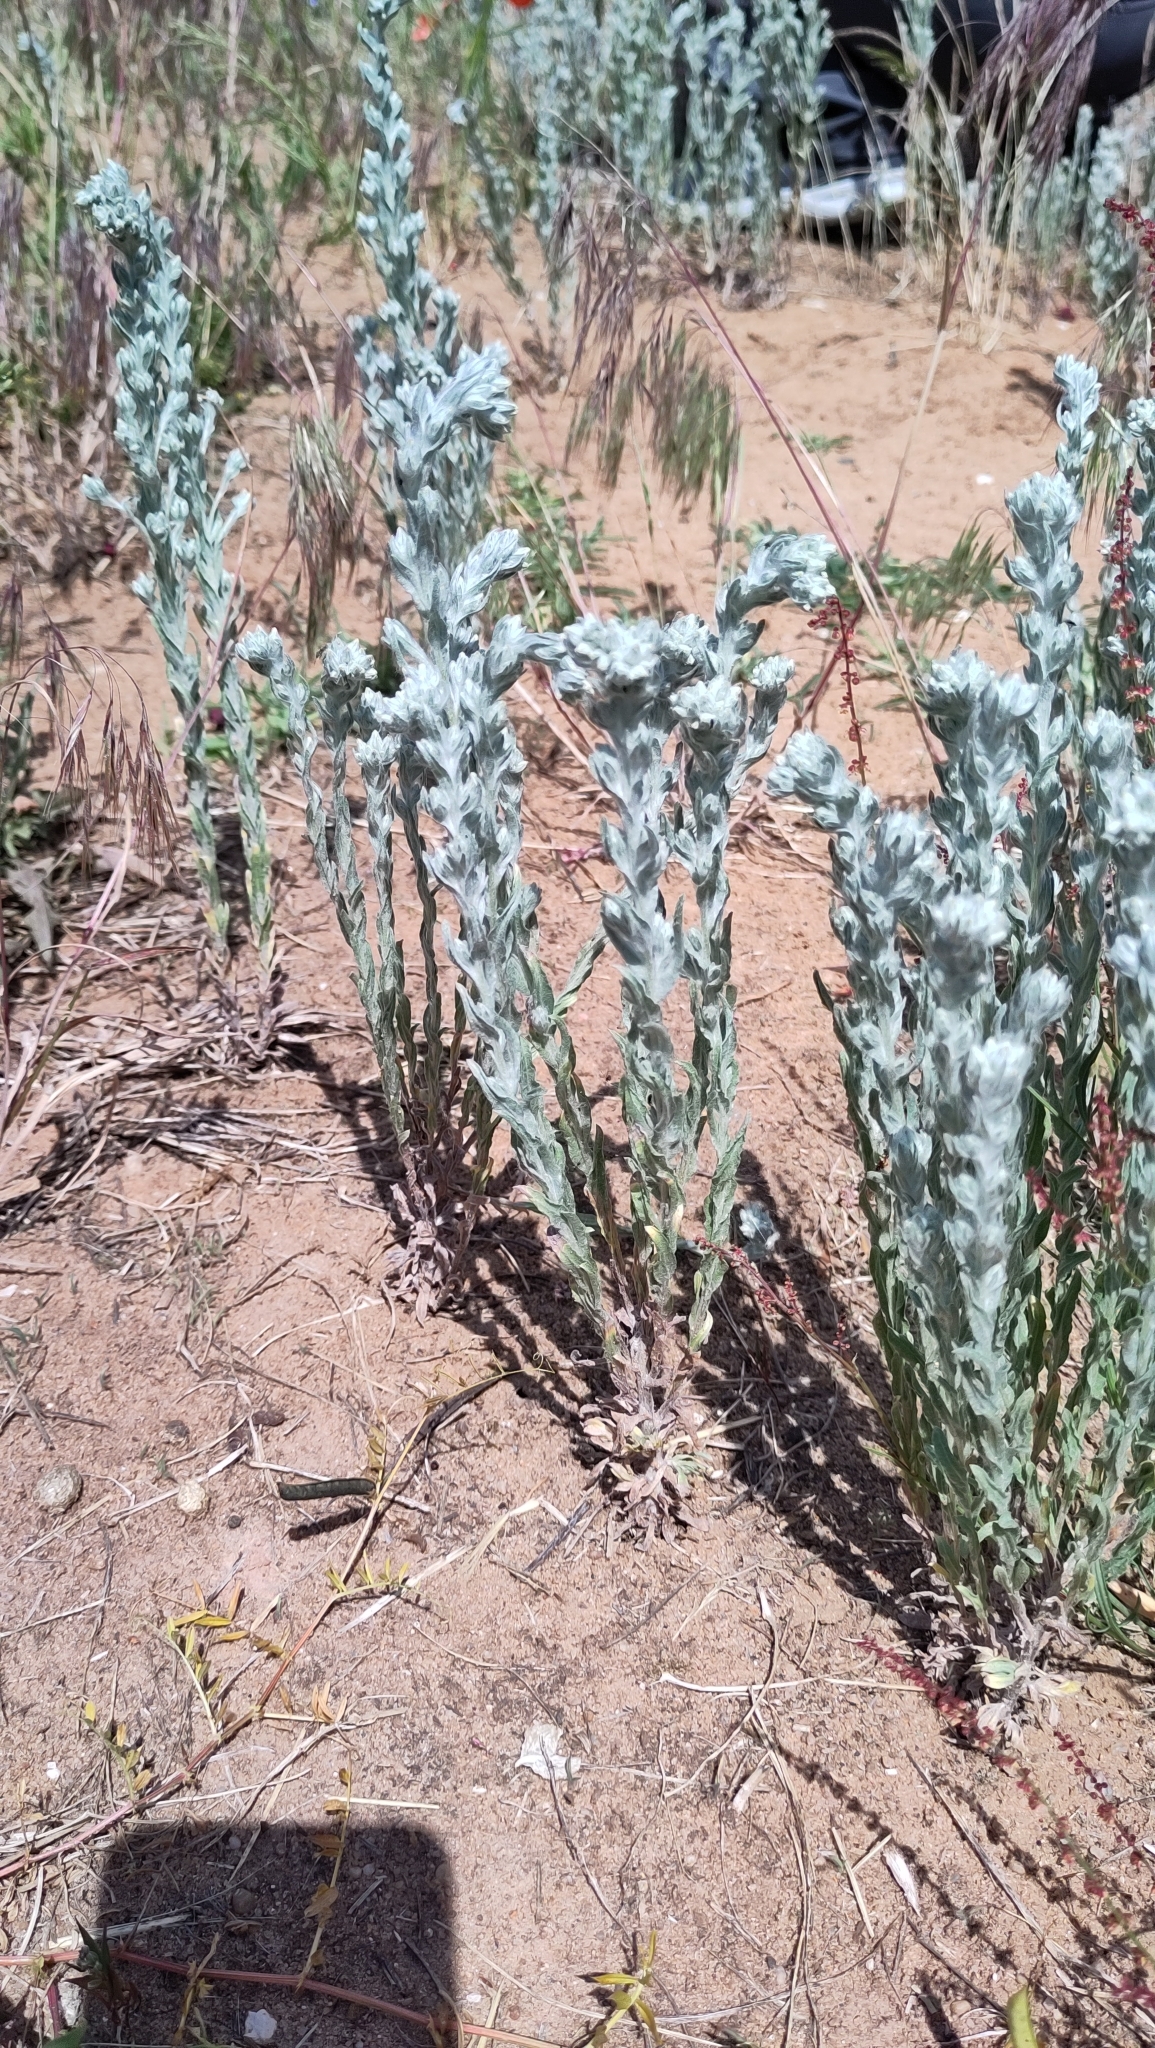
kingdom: Plantae
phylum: Tracheophyta
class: Magnoliopsida
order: Asterales
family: Asteraceae
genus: Filago
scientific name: Filago arvensis
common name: Field cudweed
